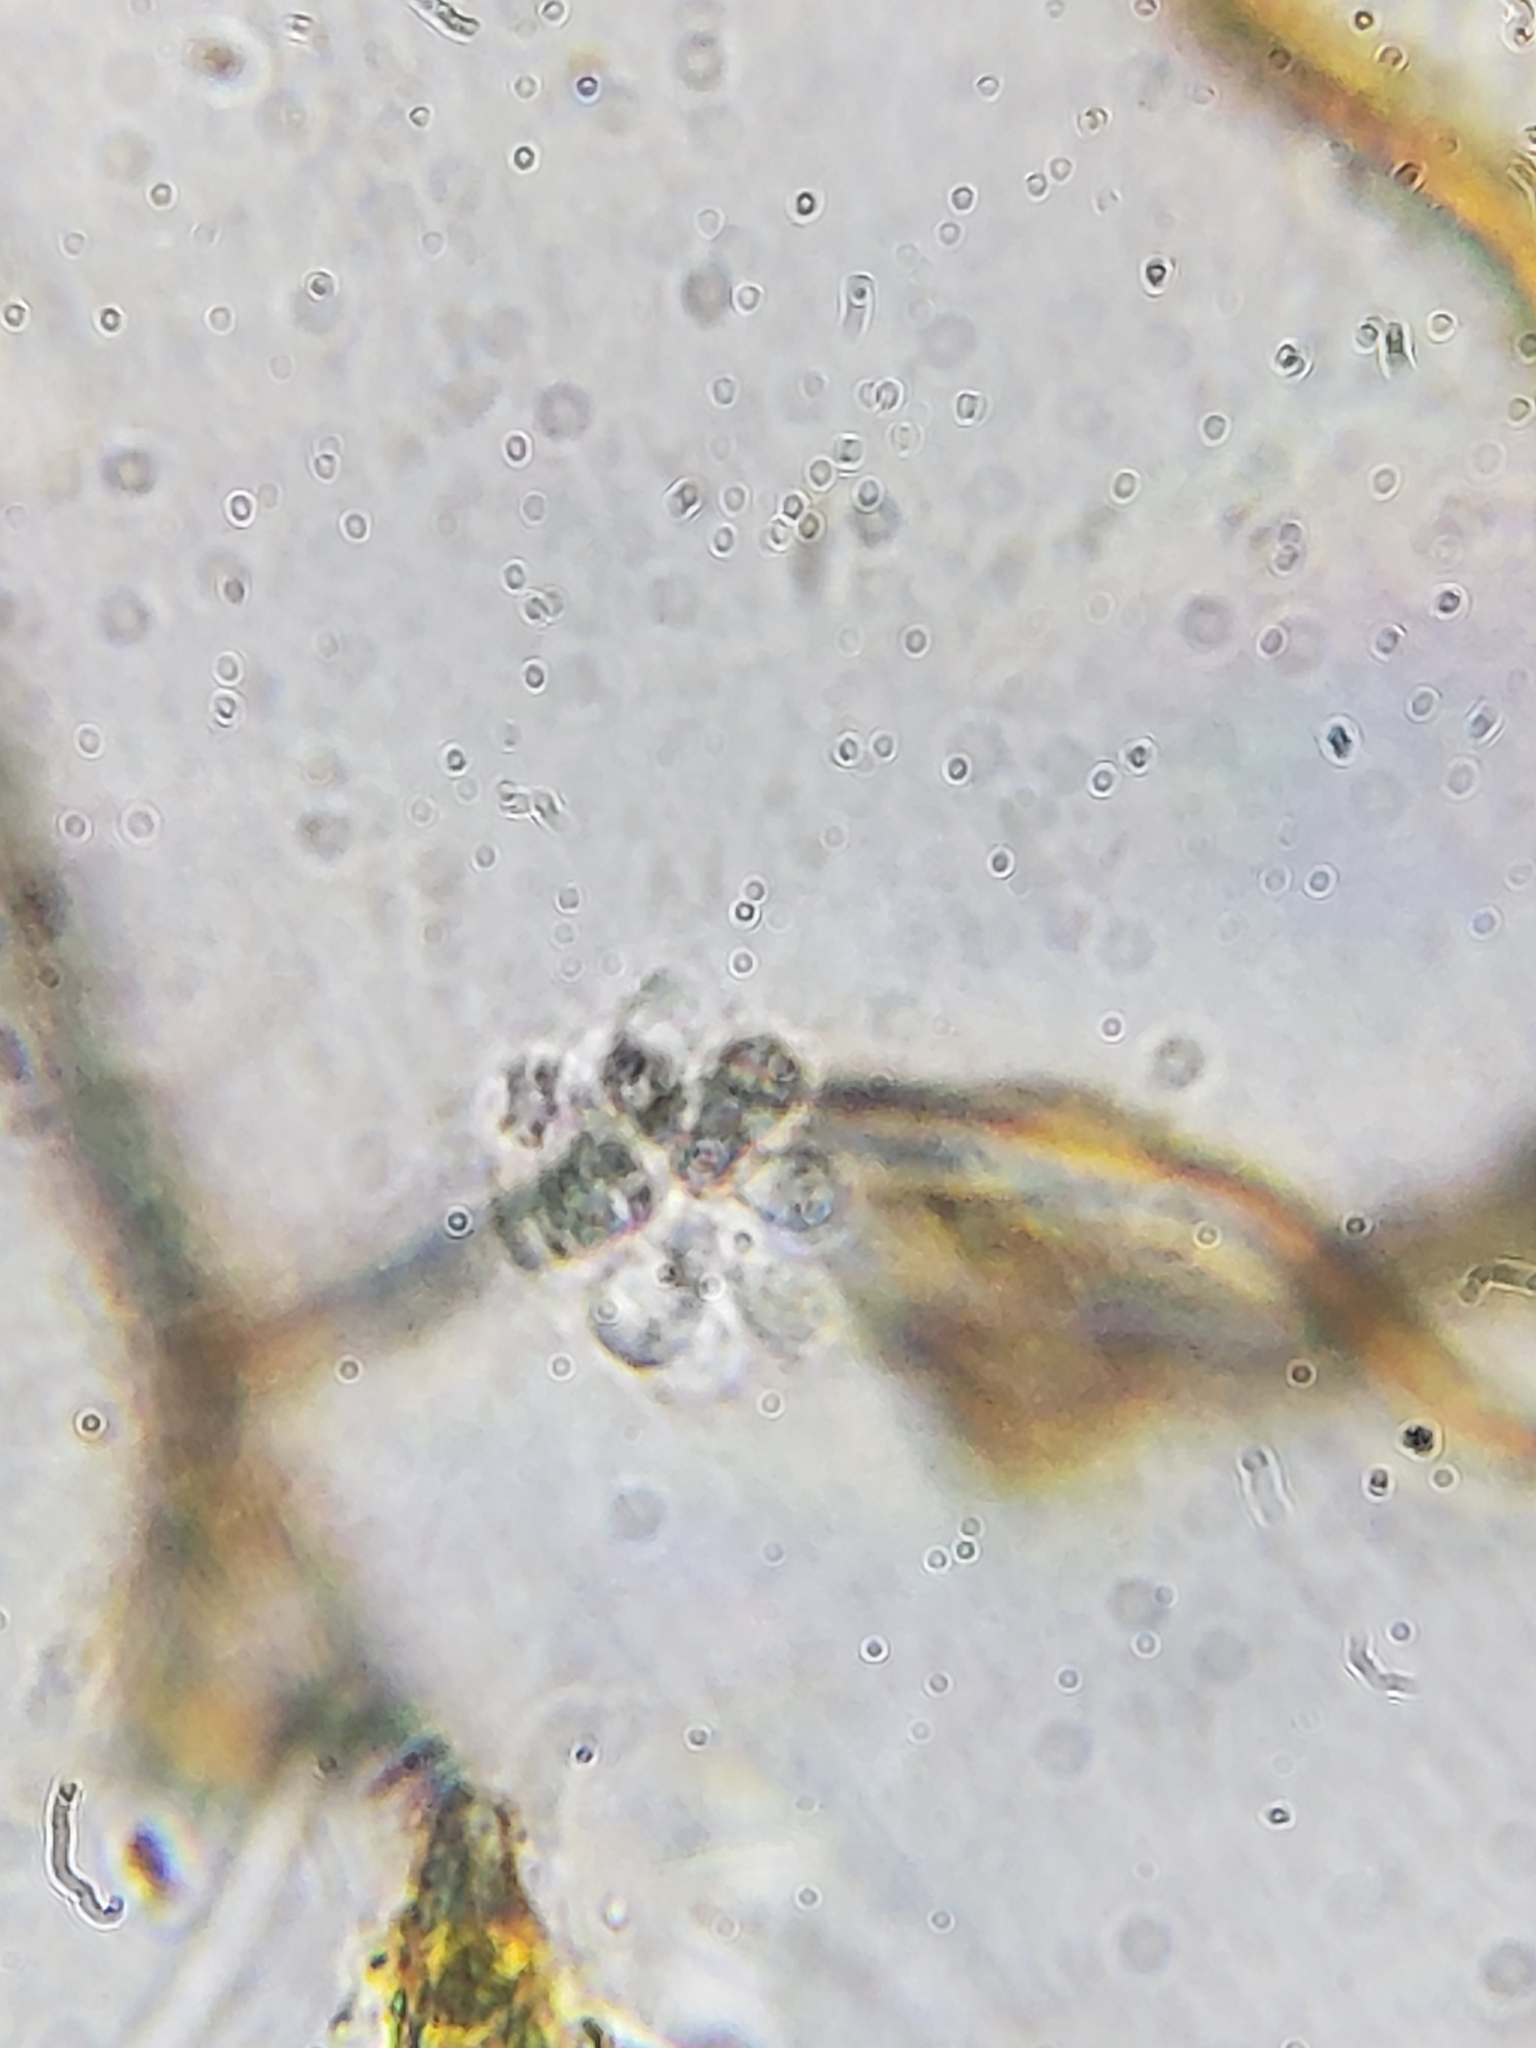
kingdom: Chromista
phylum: Ochrophyta
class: Chrysophyceae
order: Chromulinales
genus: Anthophysa
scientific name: Anthophysa vegetans
